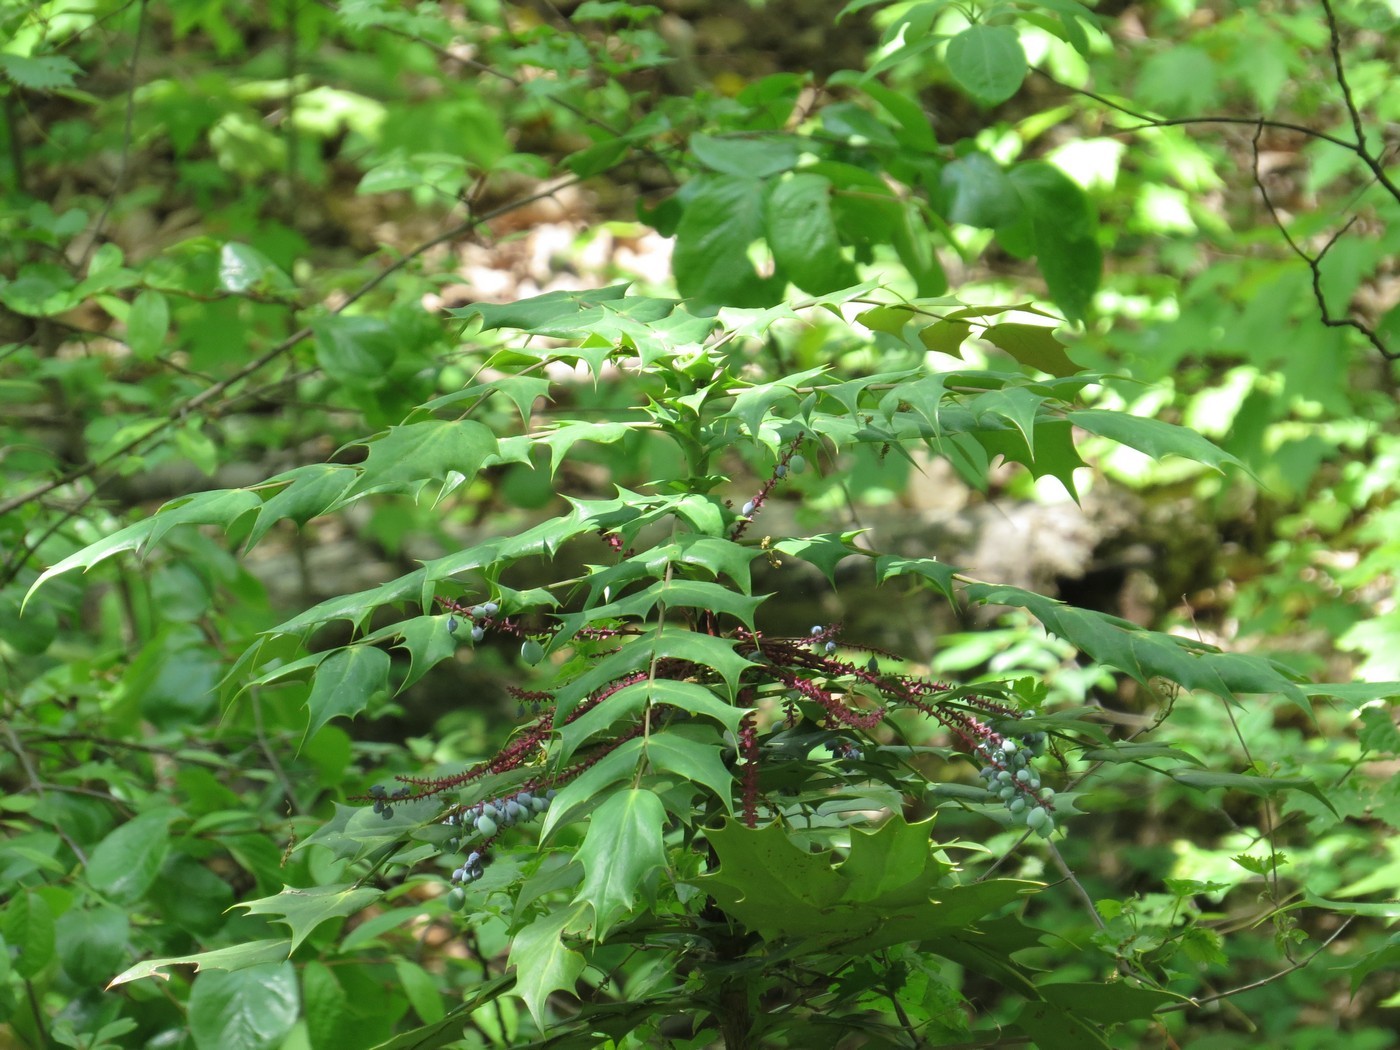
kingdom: Plantae
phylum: Tracheophyta
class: Magnoliopsida
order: Ranunculales
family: Berberidaceae
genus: Mahonia
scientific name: Mahonia bealei
